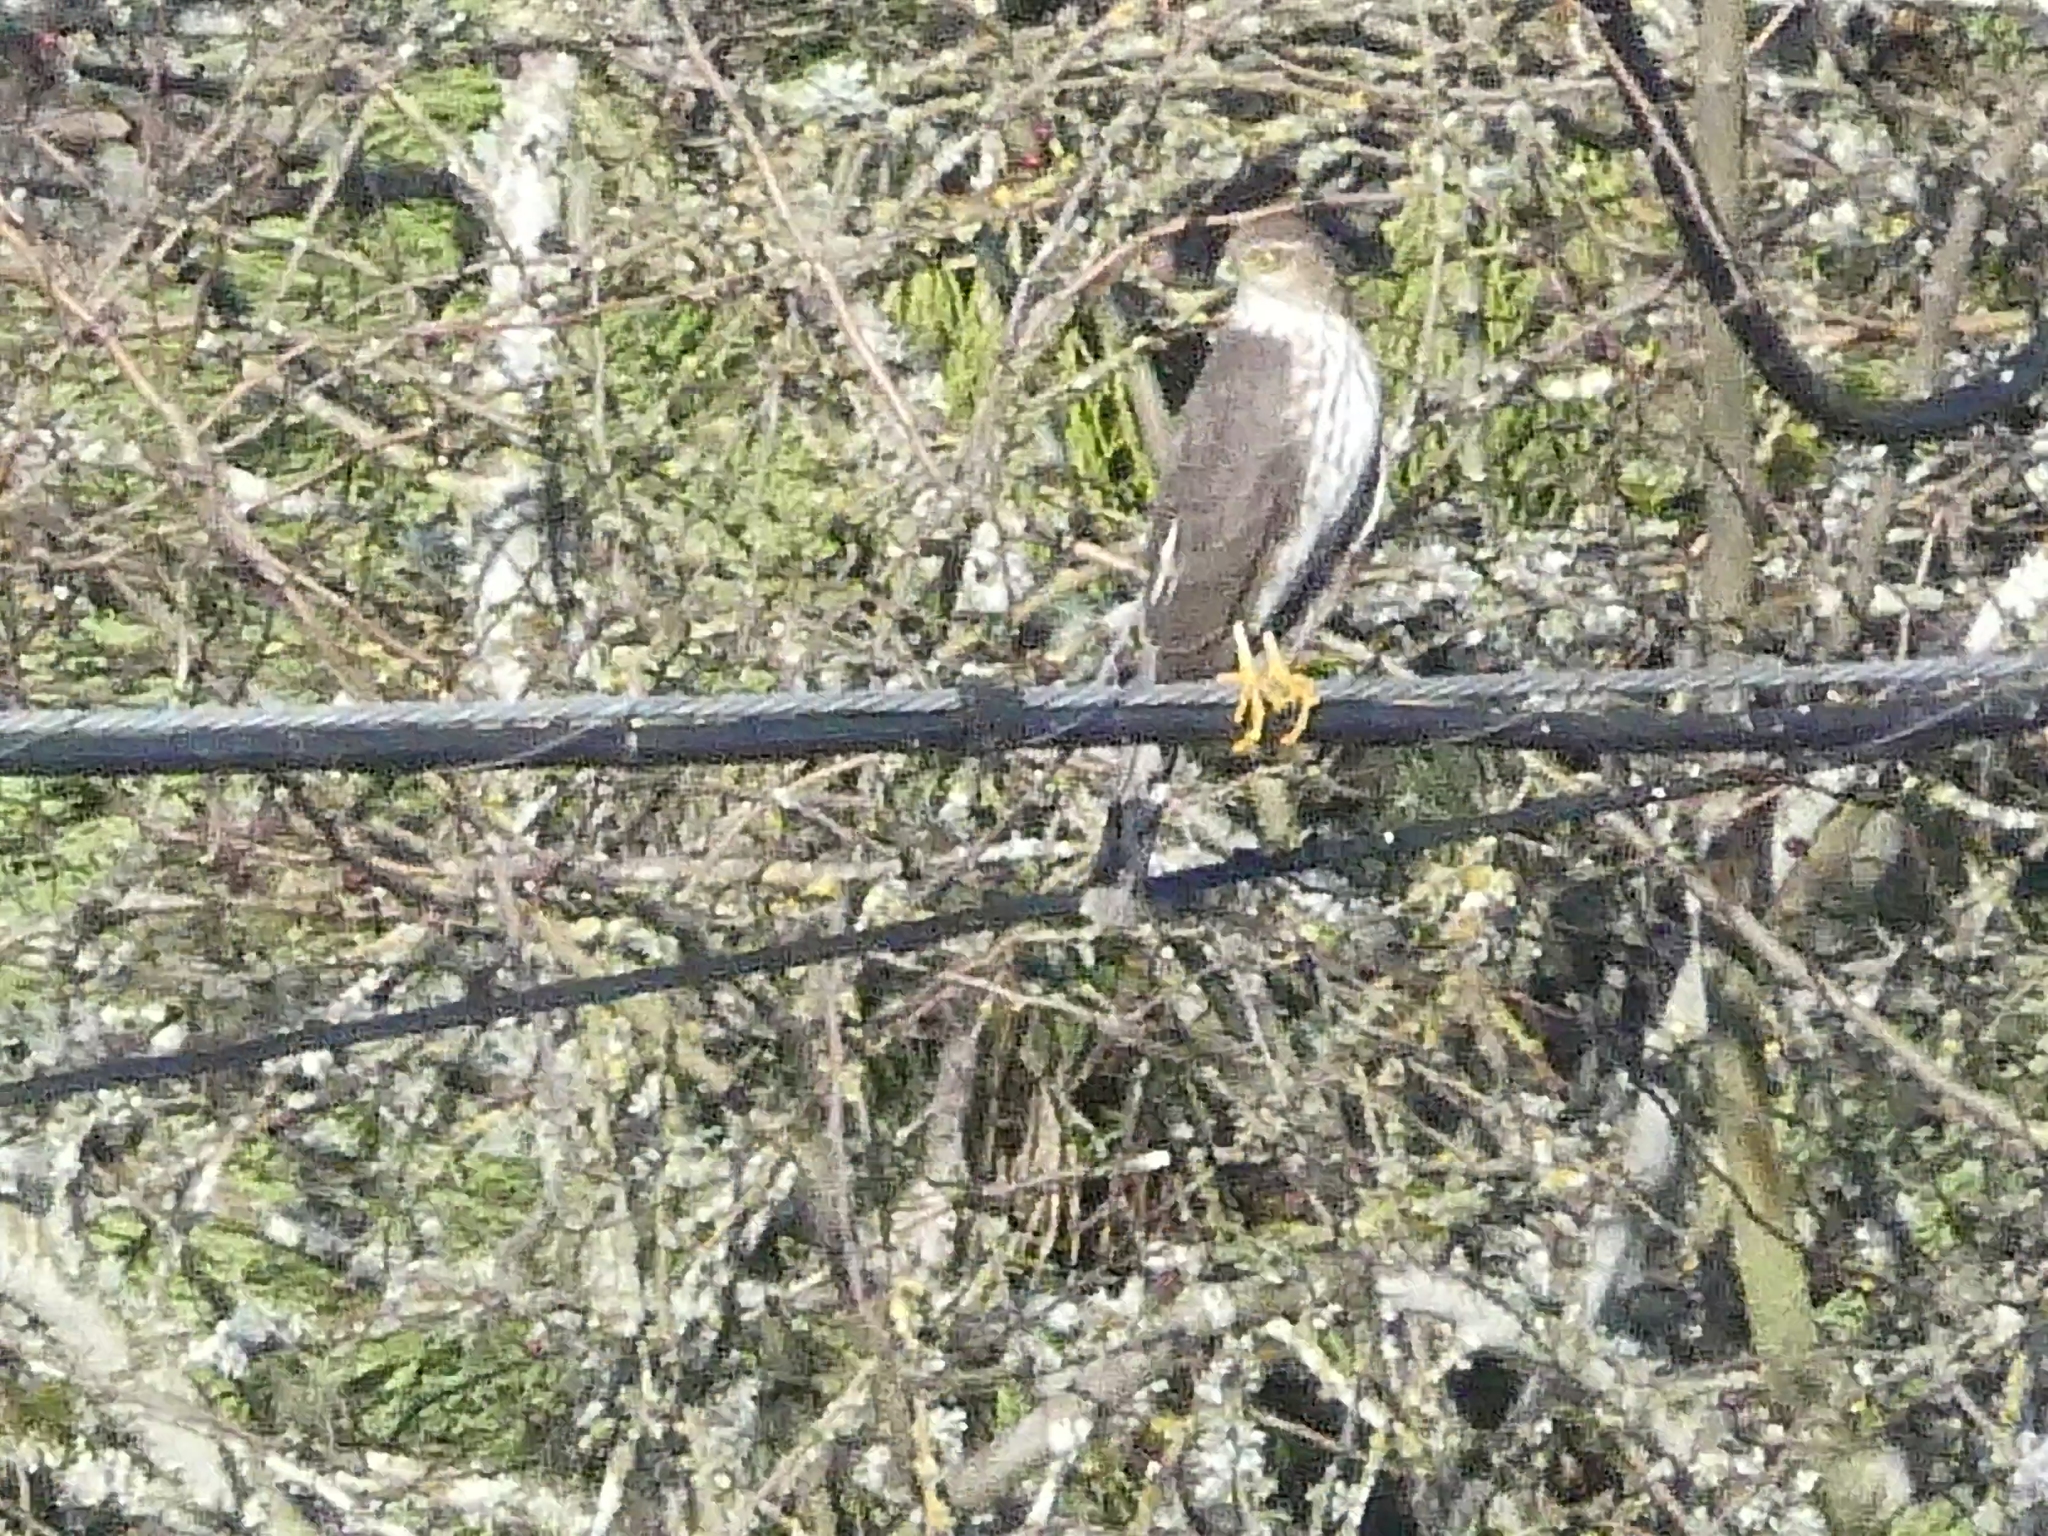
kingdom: Animalia
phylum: Chordata
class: Aves
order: Accipitriformes
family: Accipitridae
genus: Accipiter
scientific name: Accipiter striatus
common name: Sharp-shinned hawk
